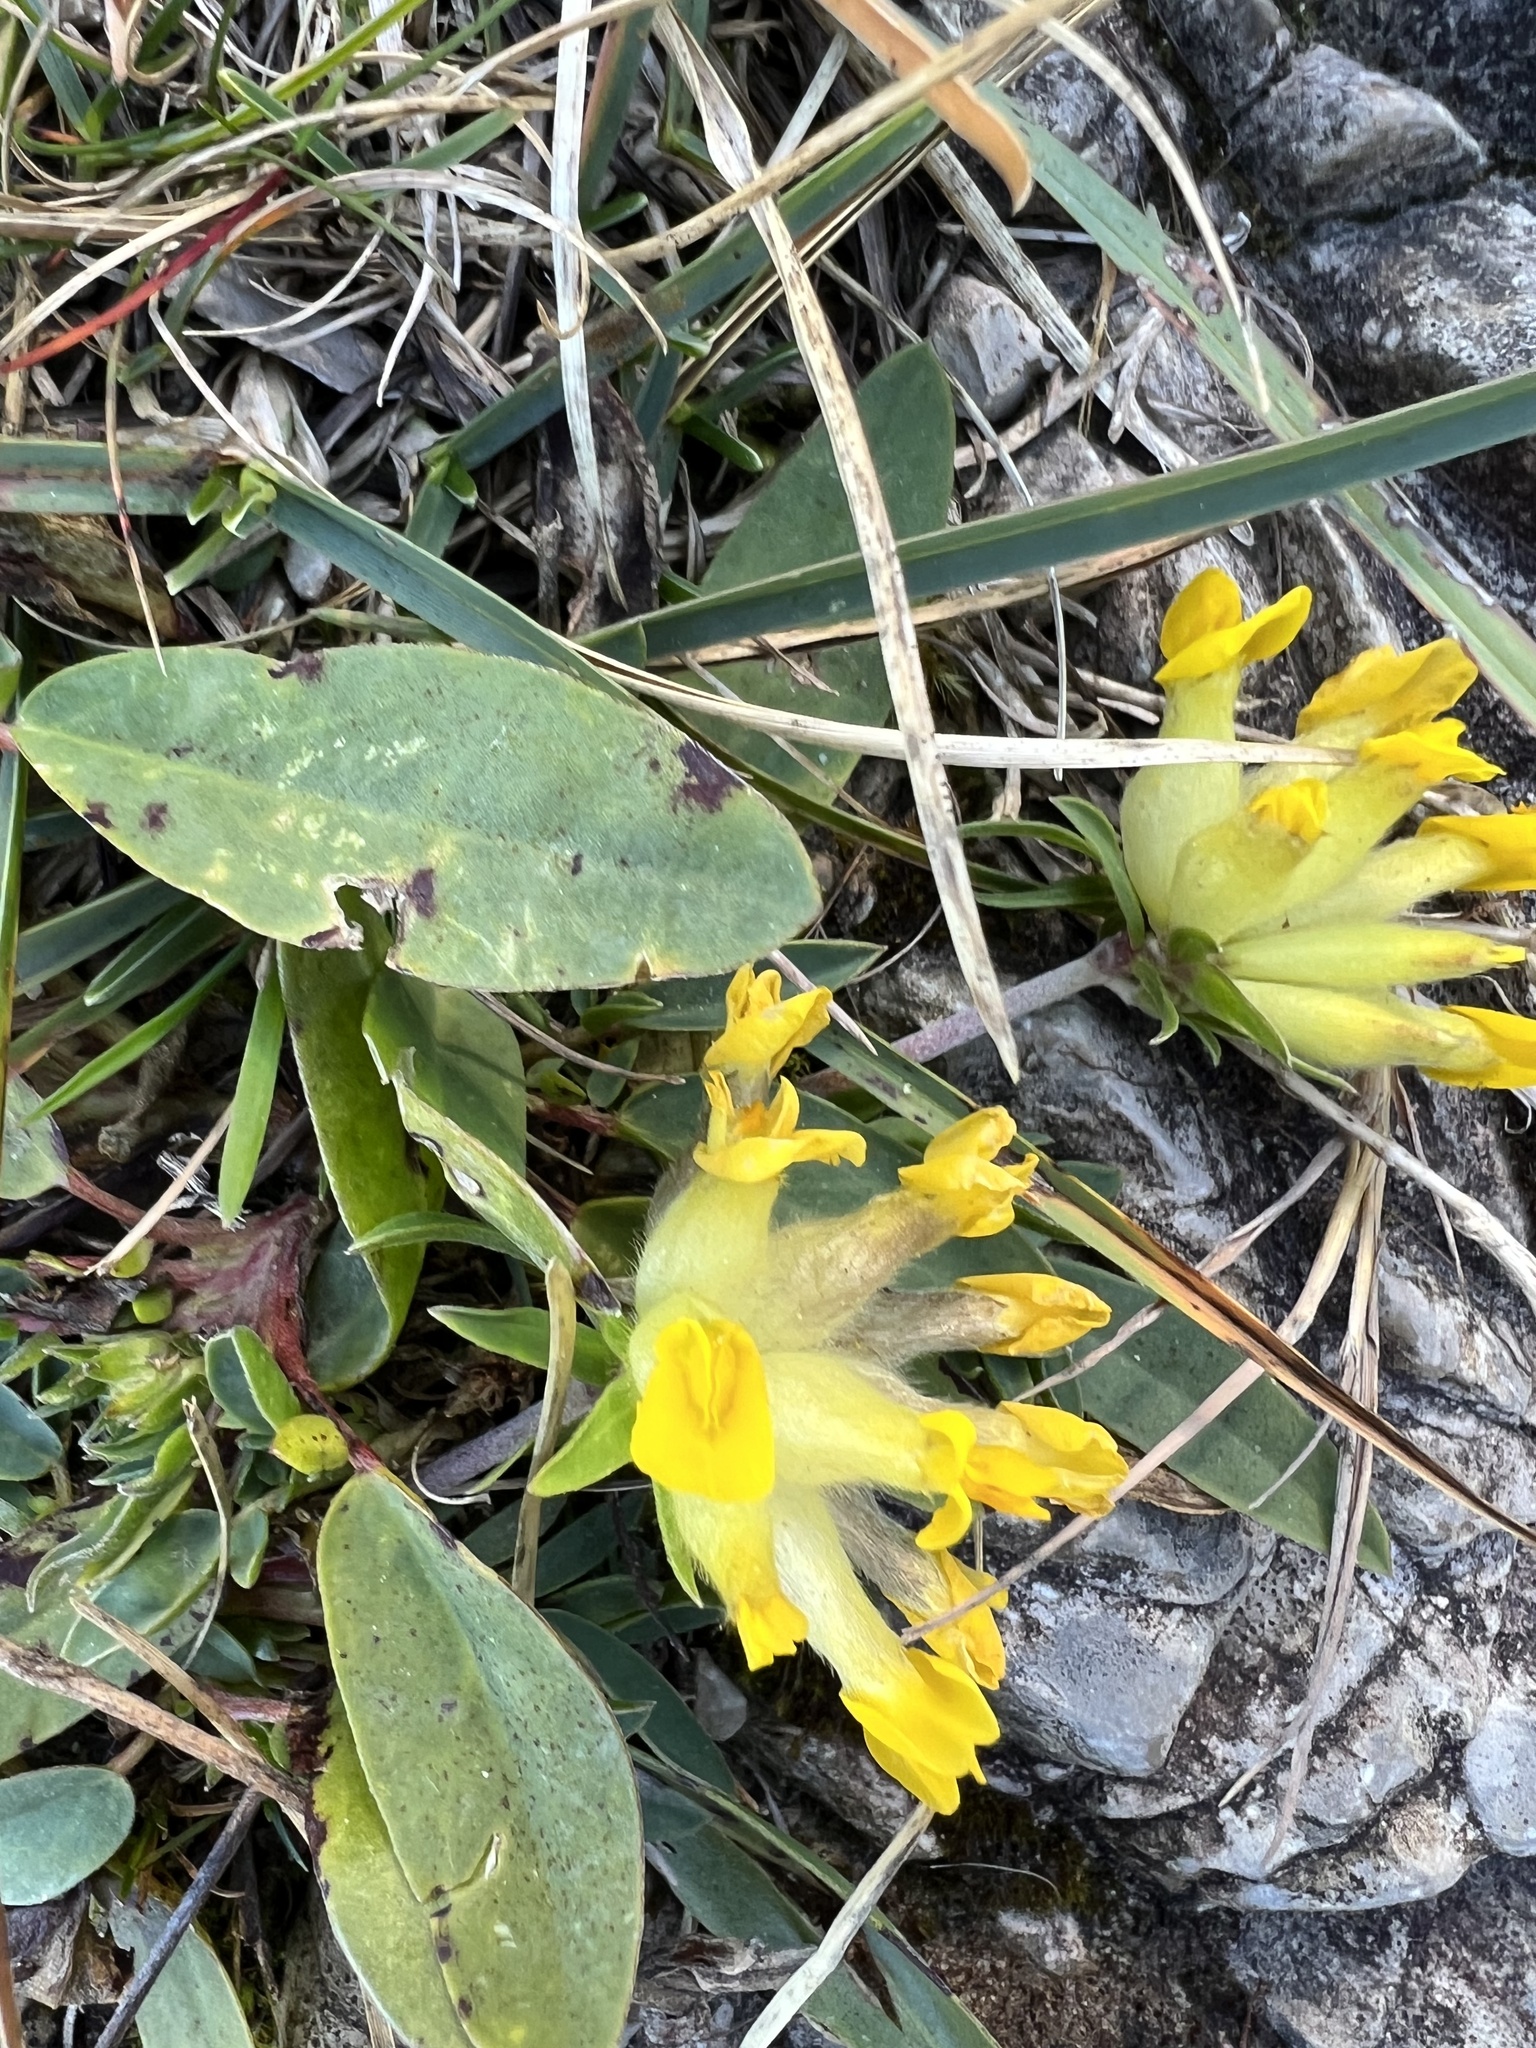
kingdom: Plantae
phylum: Tracheophyta
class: Magnoliopsida
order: Fabales
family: Fabaceae
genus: Anthyllis
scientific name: Anthyllis vulneraria
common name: Kidney vetch
